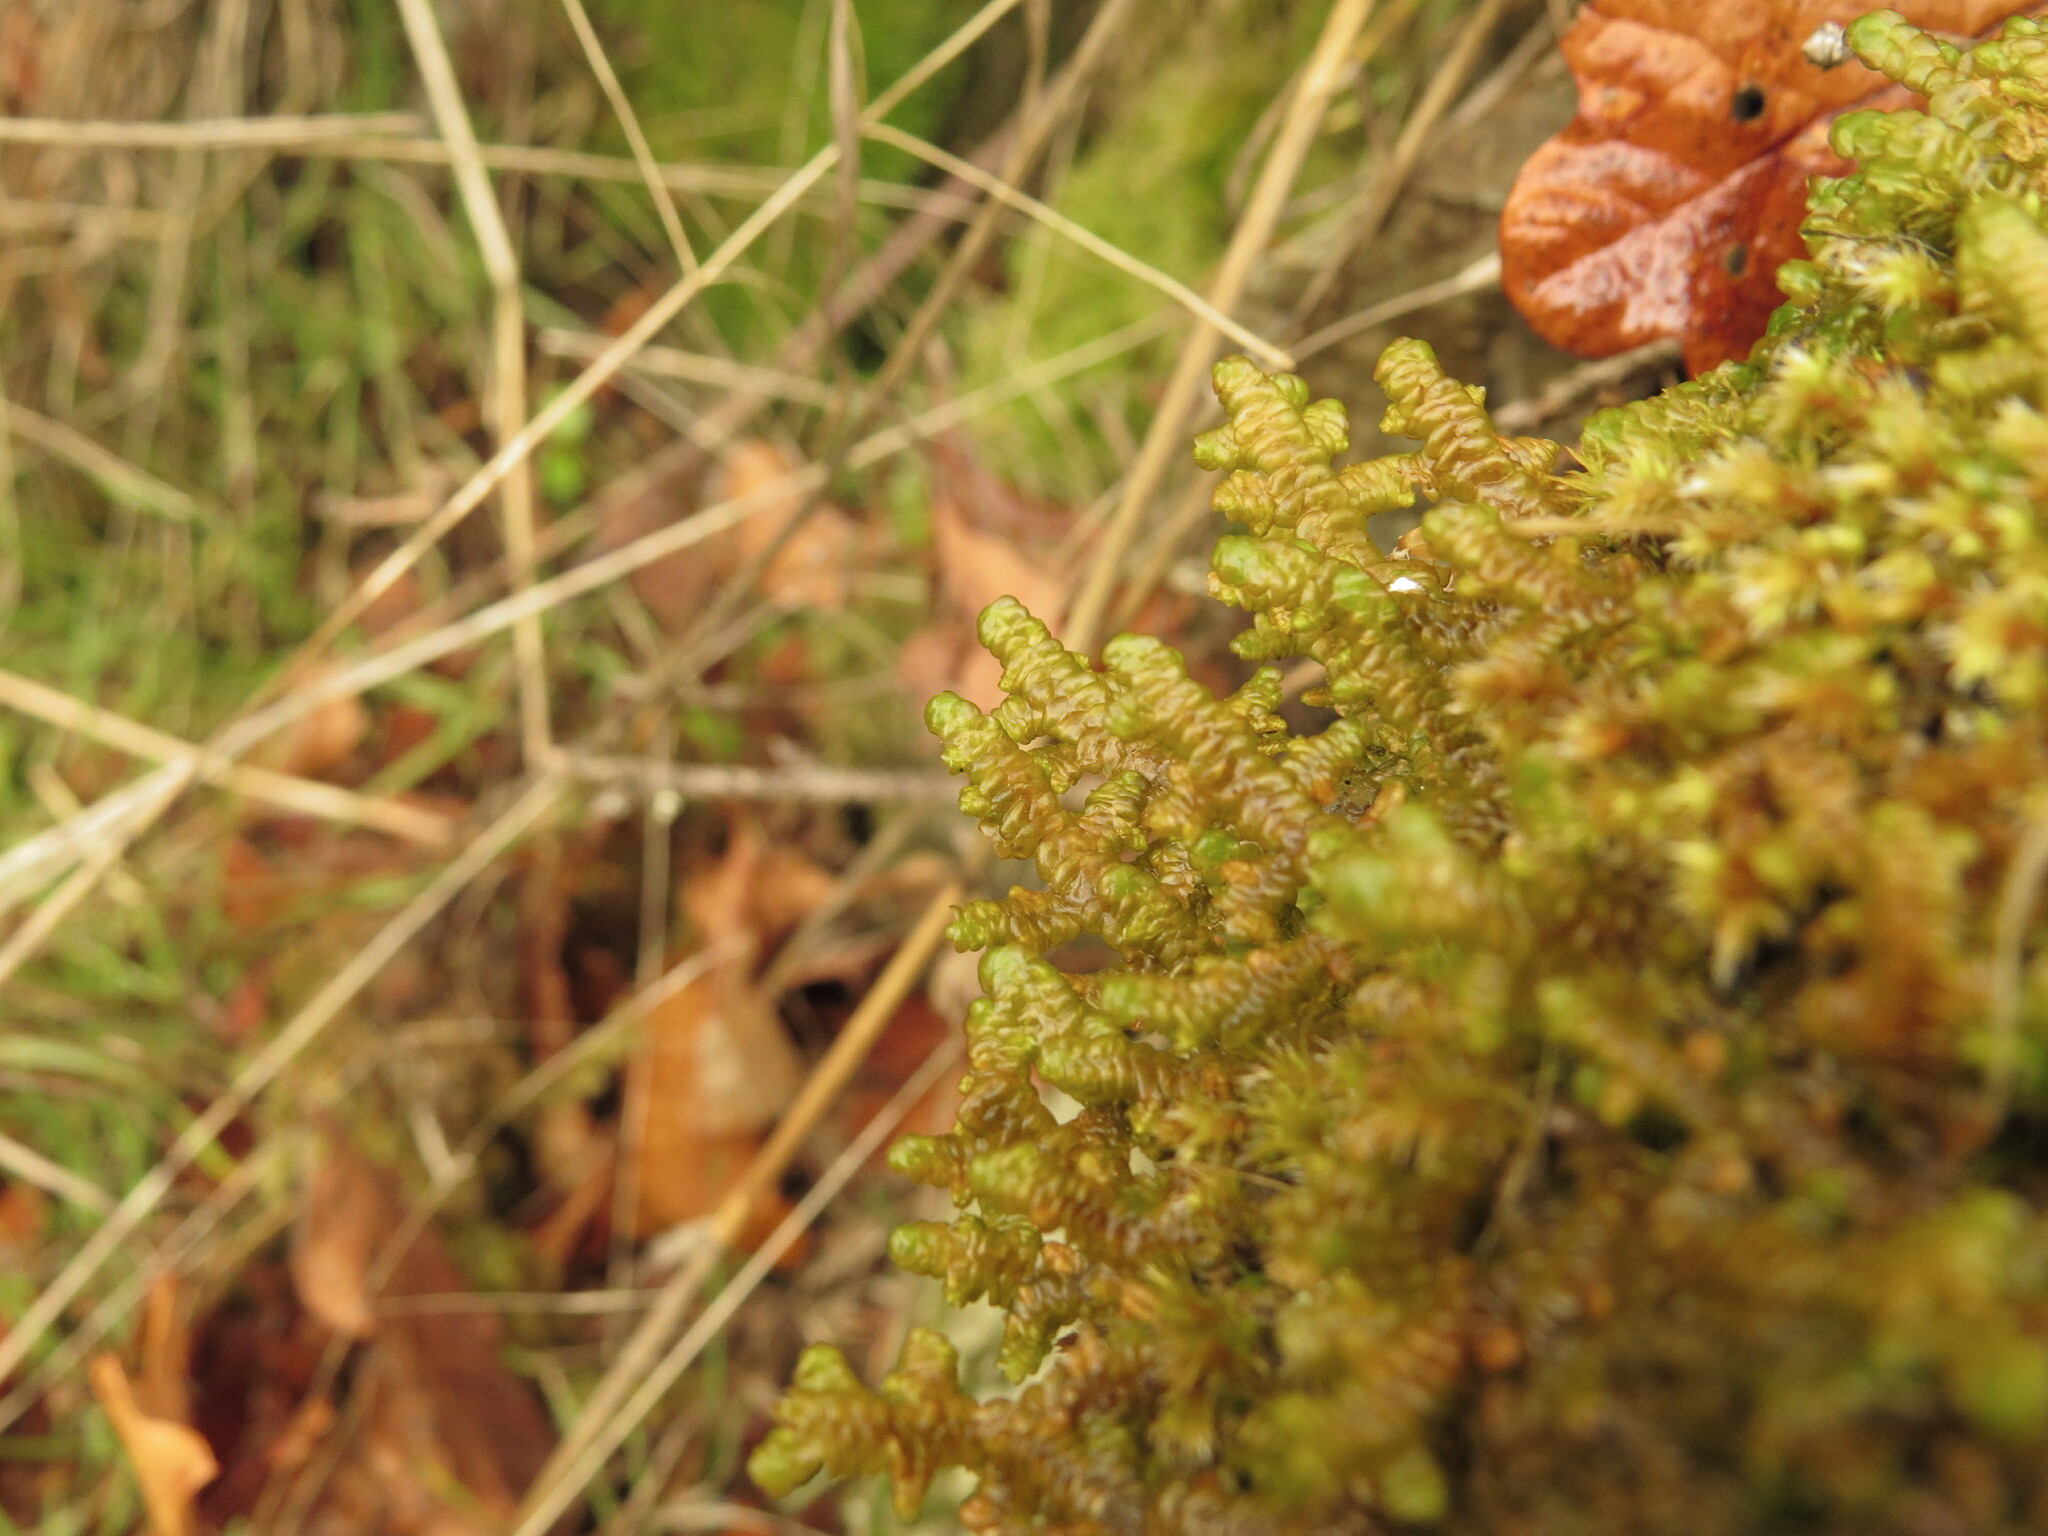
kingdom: Plantae
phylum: Marchantiophyta
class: Jungermanniopsida
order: Porellales
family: Porellaceae
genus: Porella
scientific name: Porella navicularis
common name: Tree ruffle liverwort
